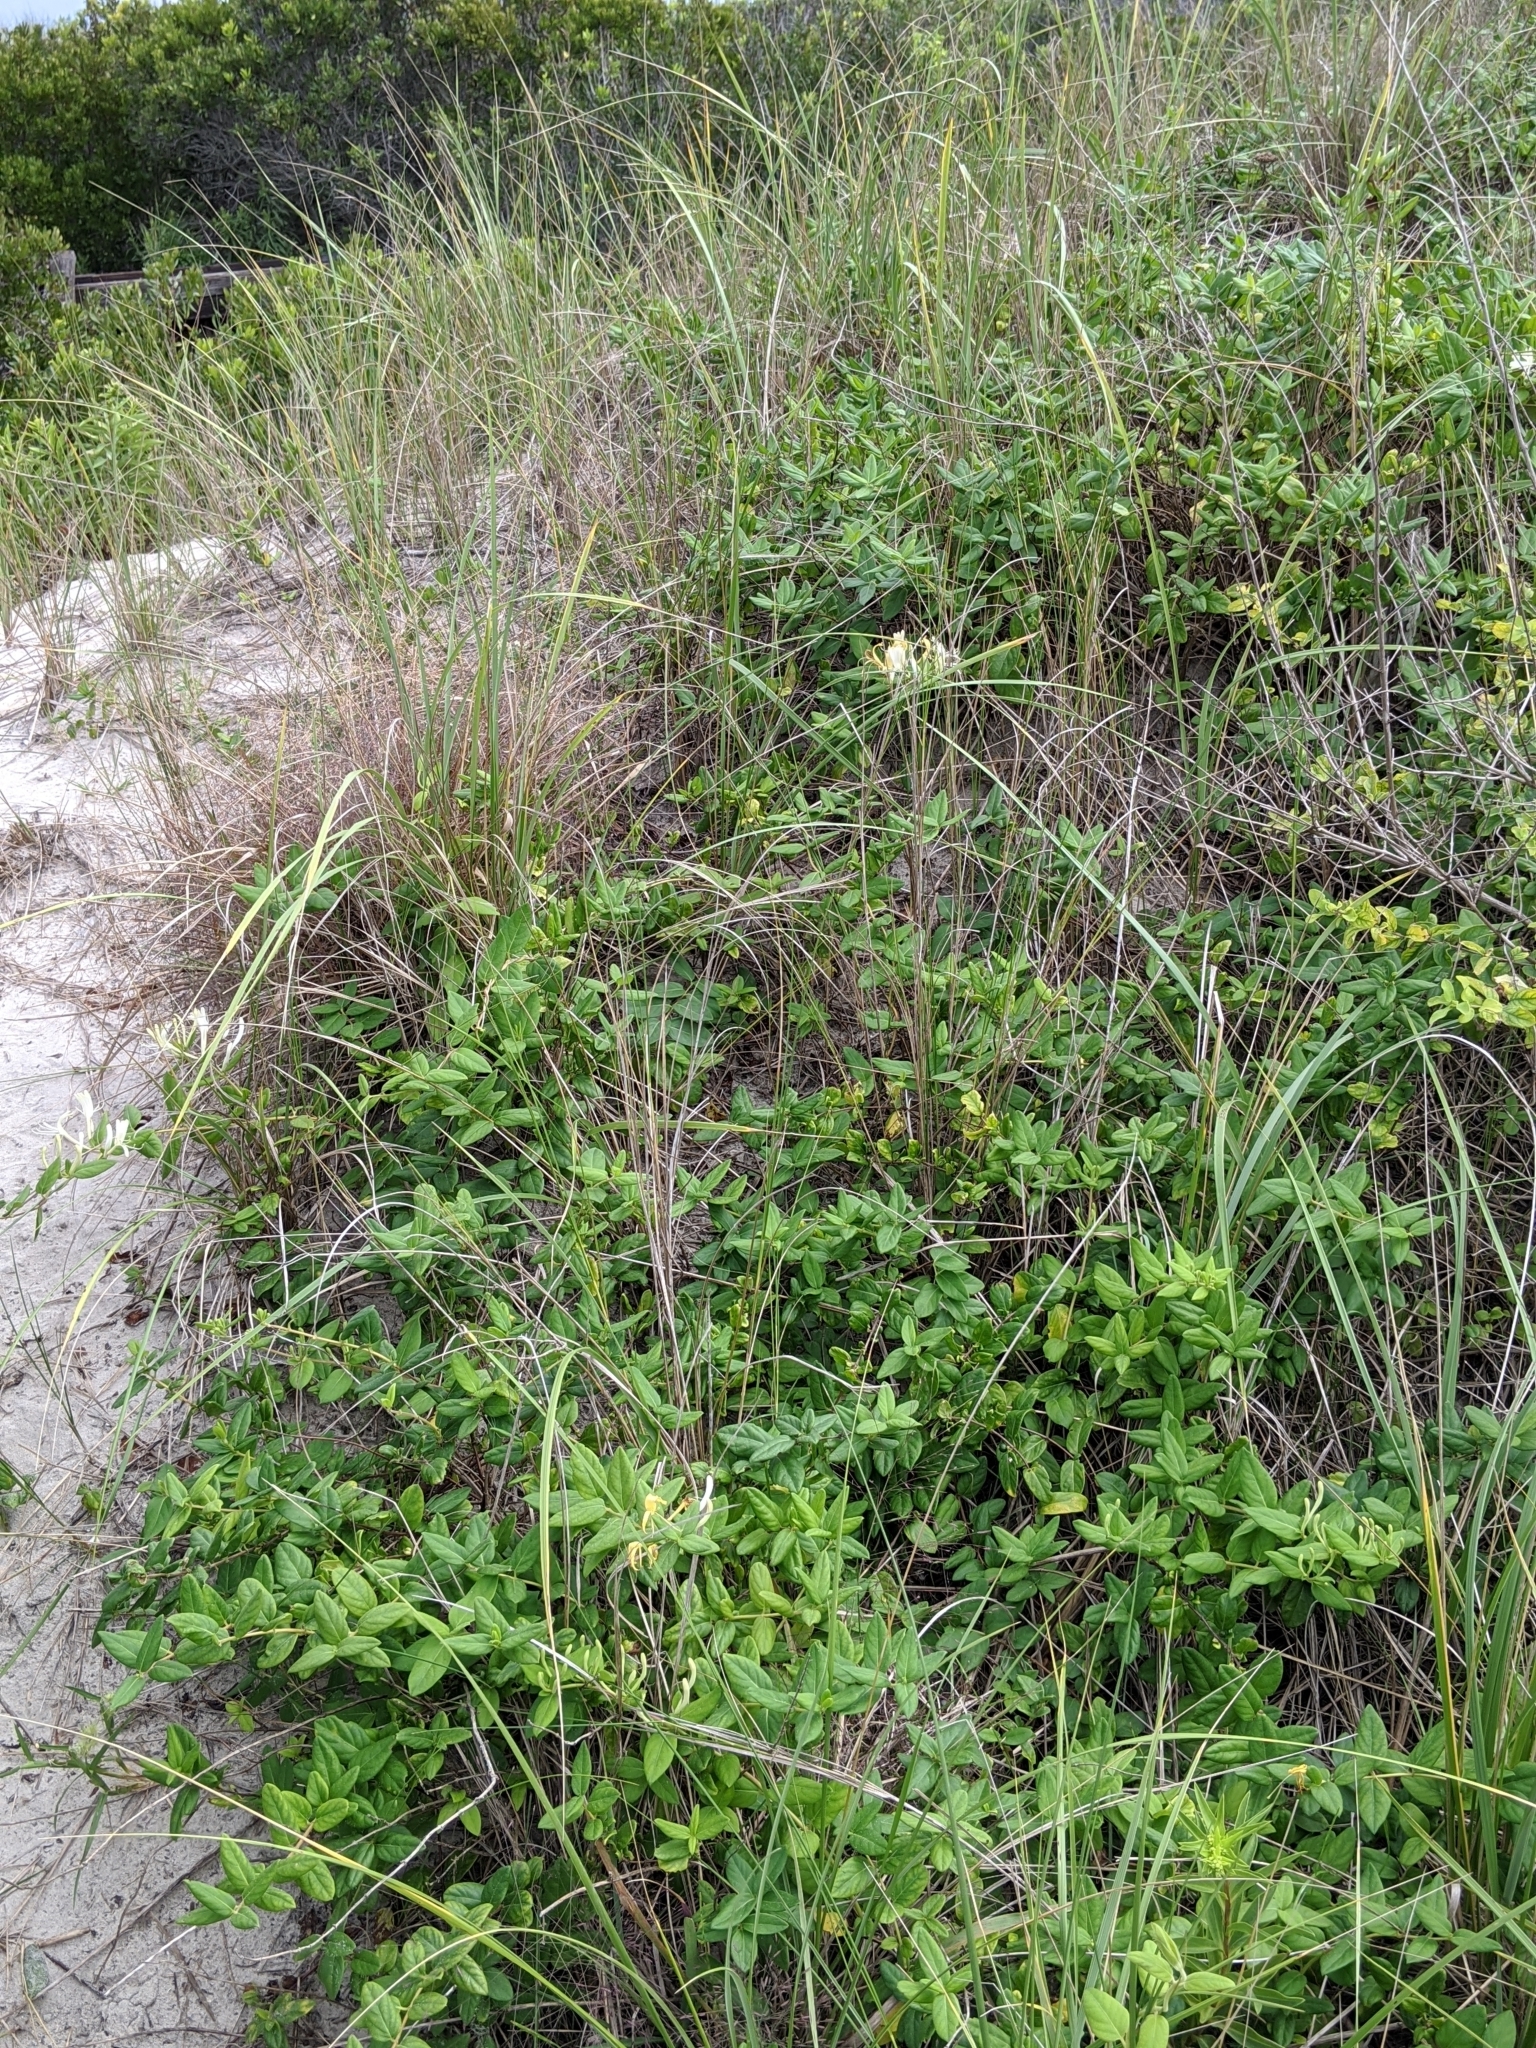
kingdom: Plantae
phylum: Tracheophyta
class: Magnoliopsida
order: Dipsacales
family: Caprifoliaceae
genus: Lonicera
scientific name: Lonicera japonica
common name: Japanese honeysuckle
